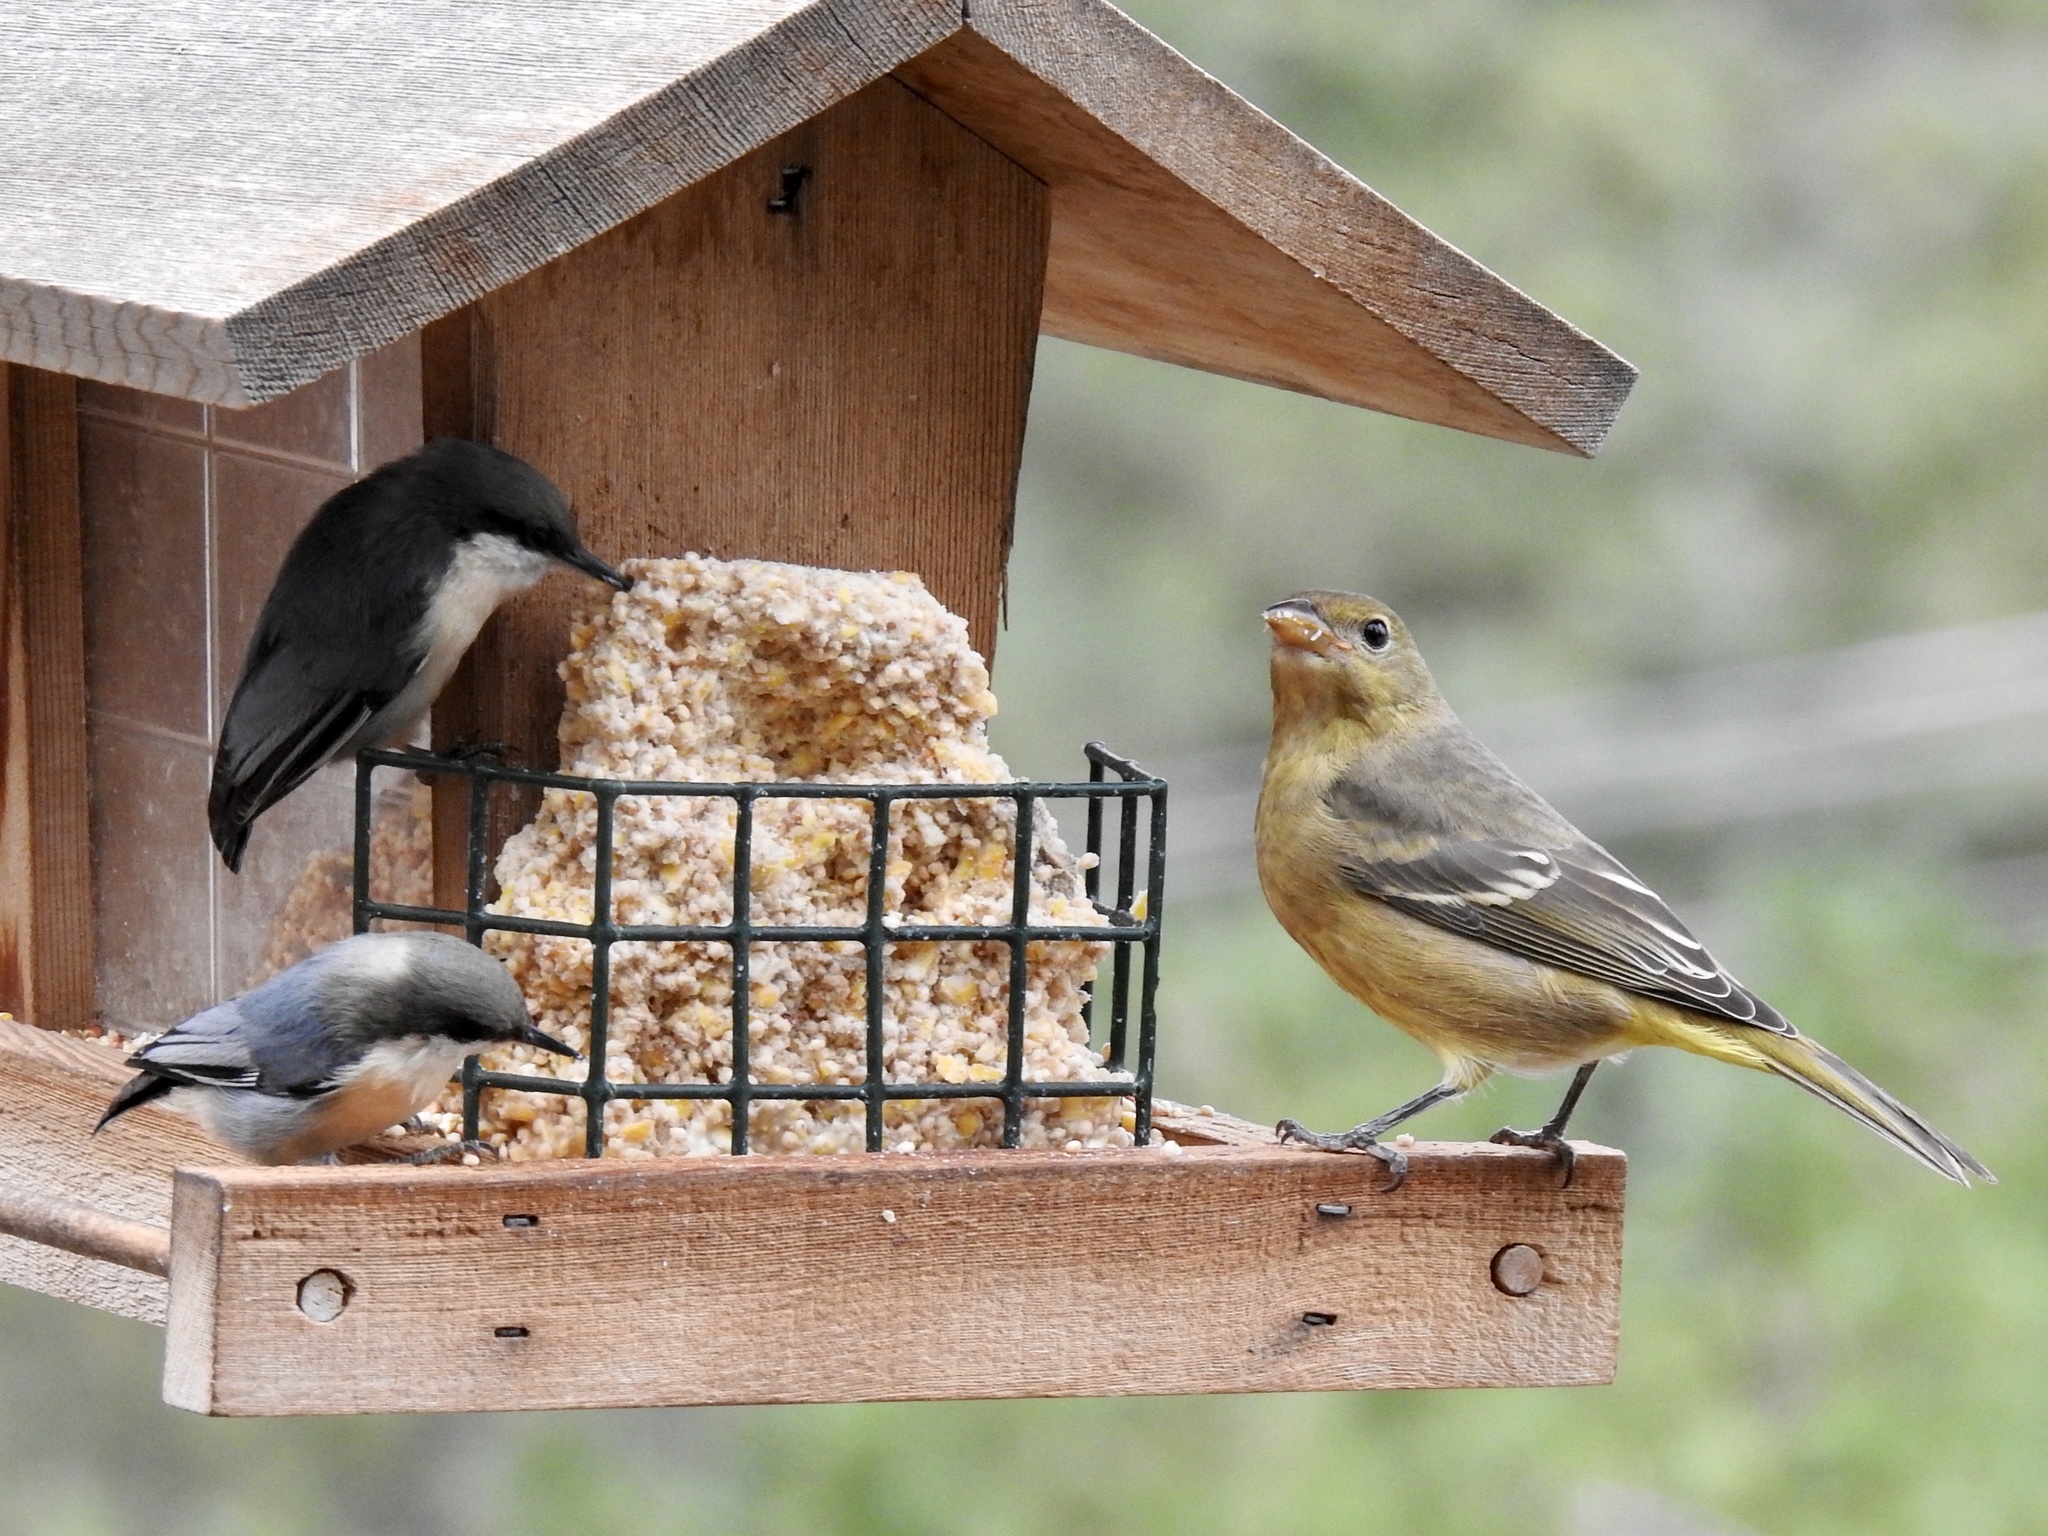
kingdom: Animalia
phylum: Chordata
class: Aves
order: Passeriformes
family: Sittidae
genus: Sitta
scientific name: Sitta pygmaea
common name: Pygmy nuthatch
